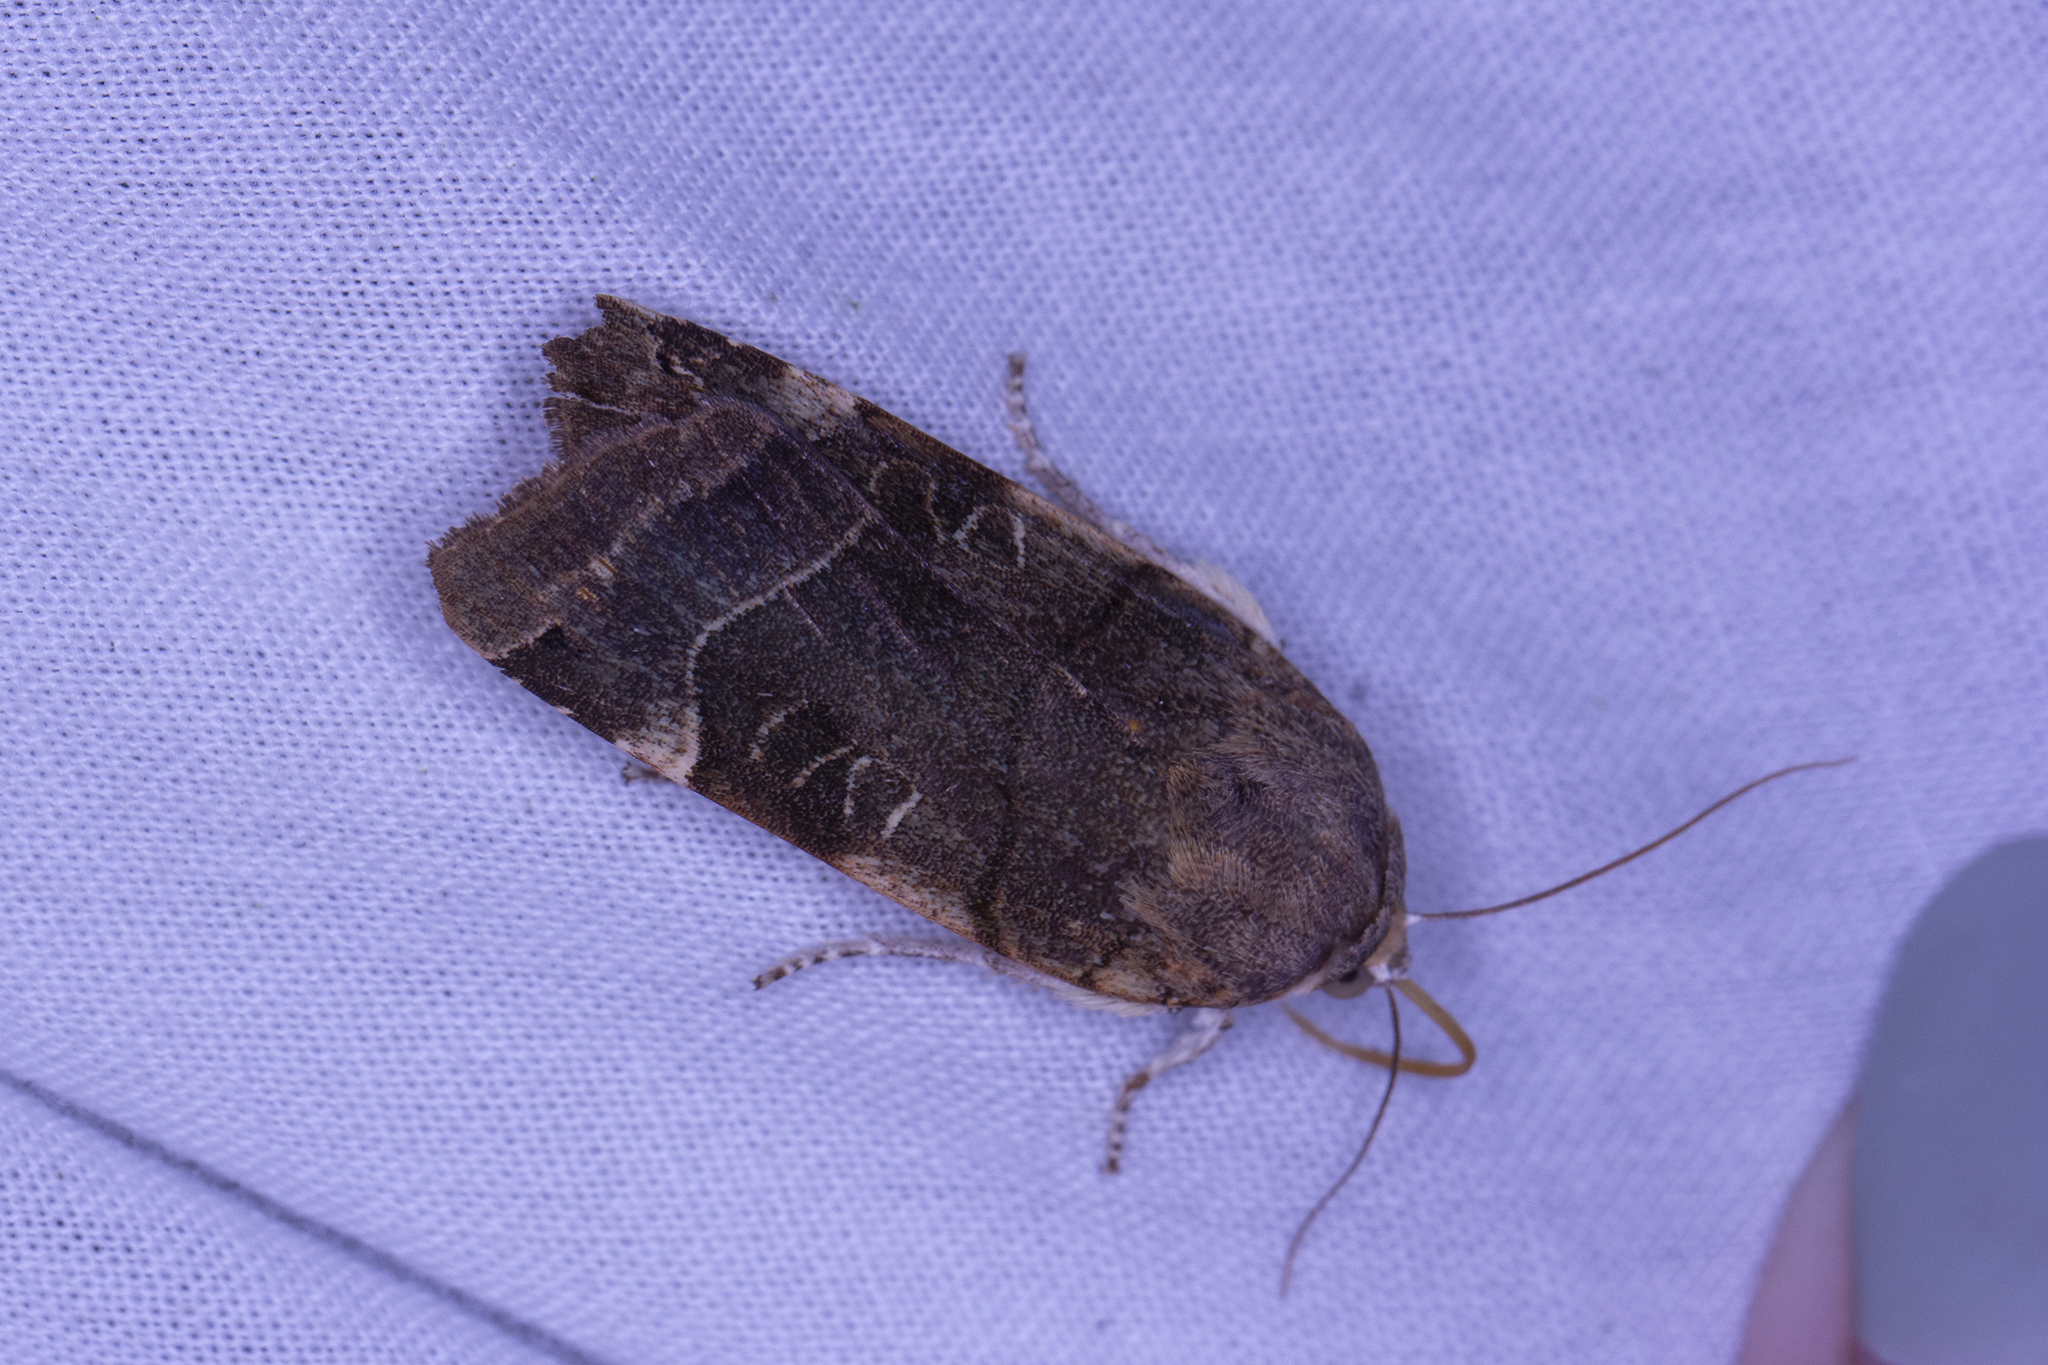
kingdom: Animalia
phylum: Arthropoda
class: Insecta
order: Lepidoptera
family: Noctuidae
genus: Noctua
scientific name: Noctua fimbriata
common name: Broad-bordered yellow underwing
